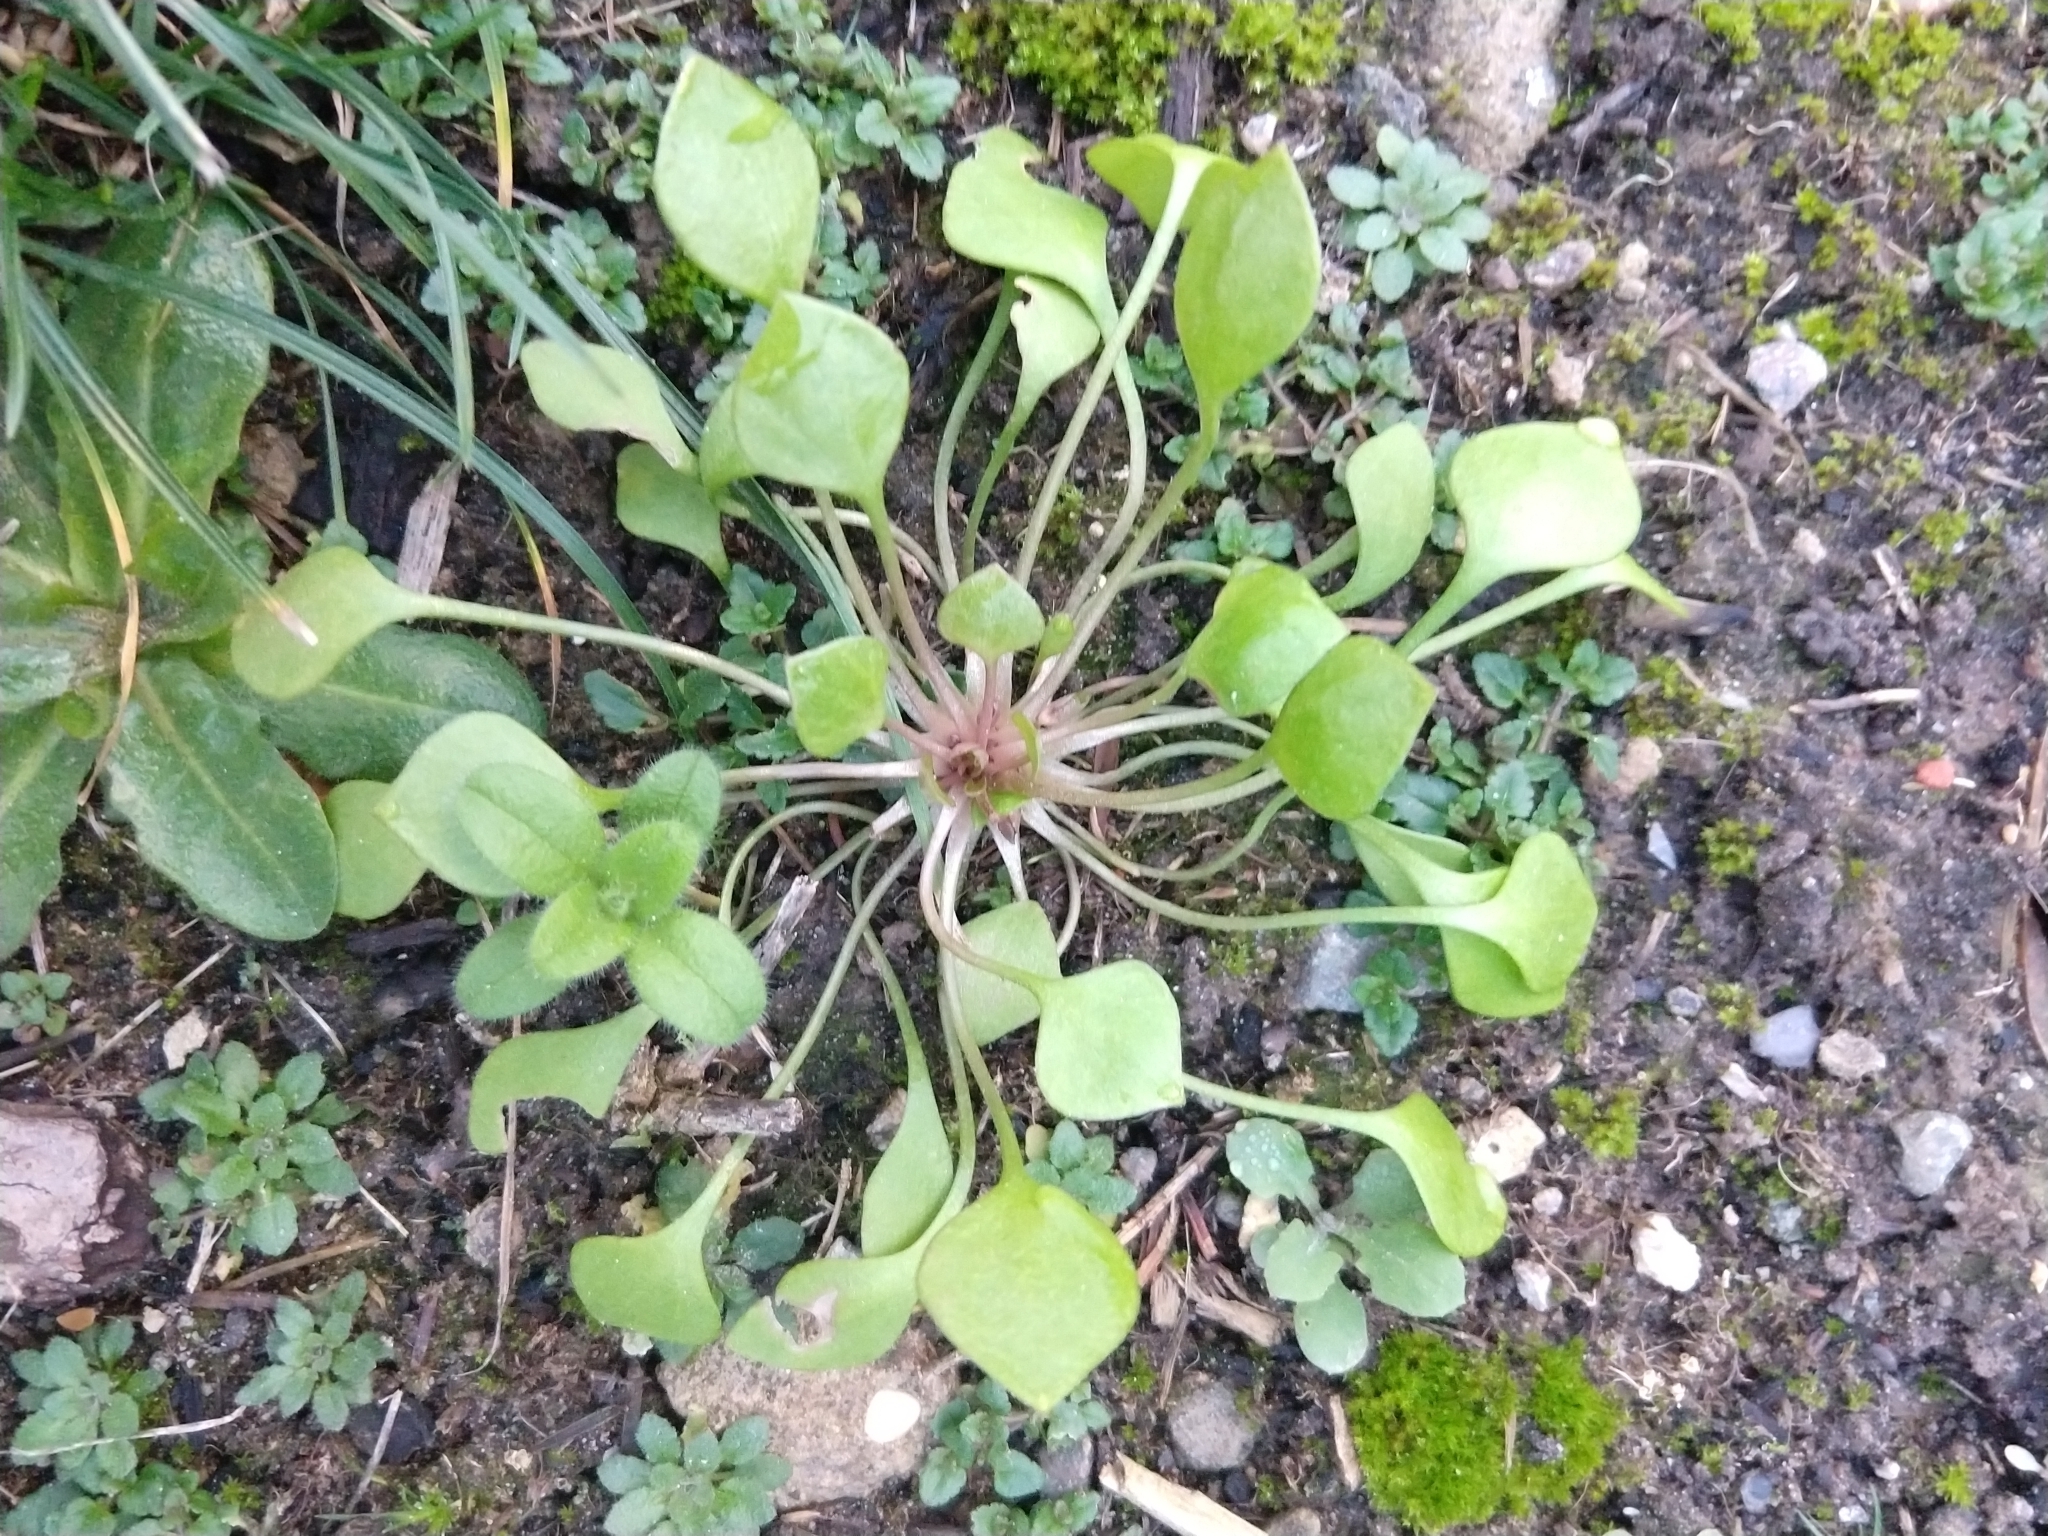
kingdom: Plantae
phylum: Tracheophyta
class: Magnoliopsida
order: Caryophyllales
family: Montiaceae
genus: Claytonia
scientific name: Claytonia perfoliata
